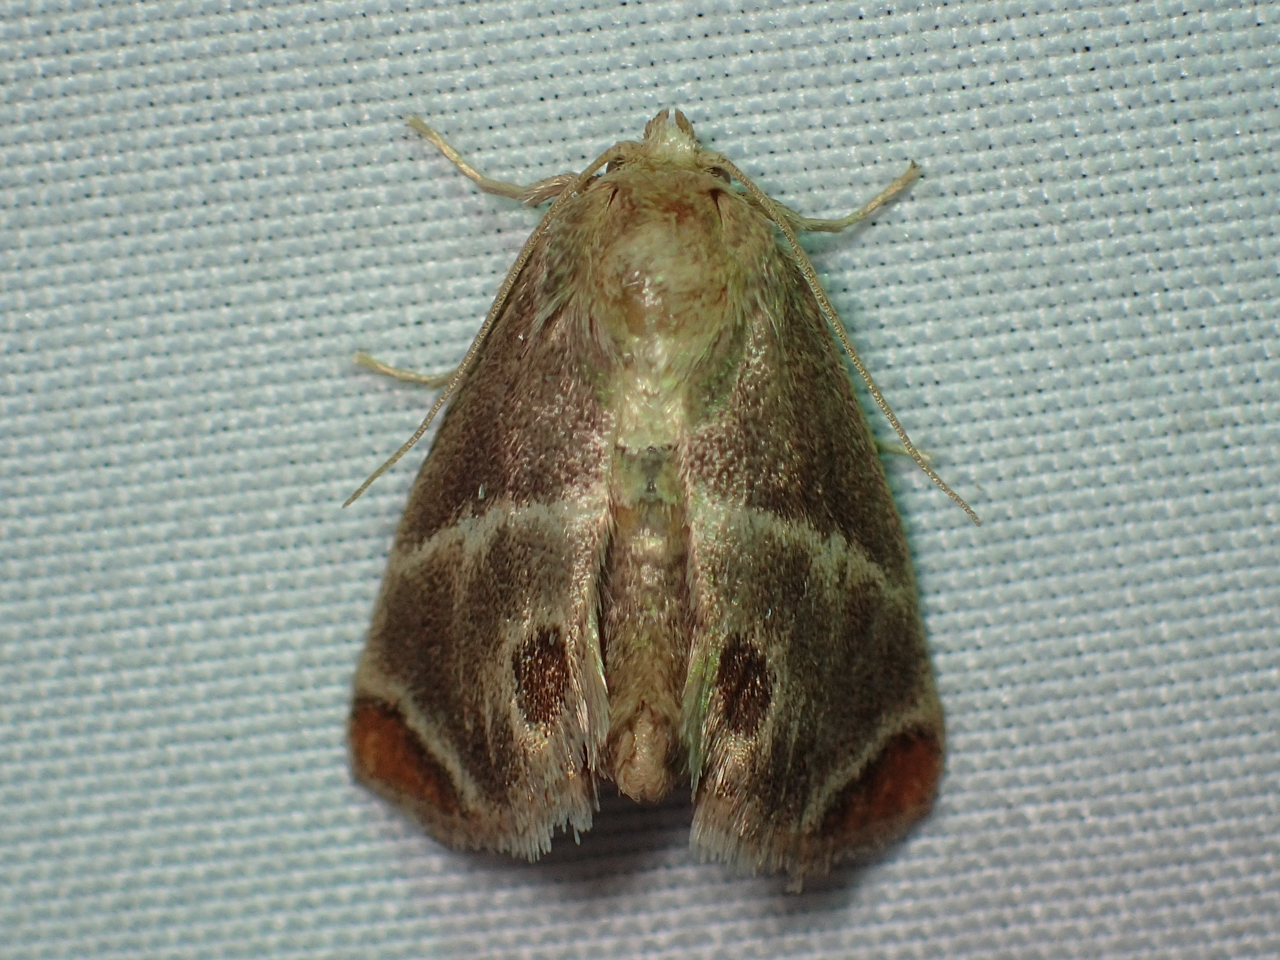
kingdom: Animalia
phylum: Arthropoda
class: Insecta
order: Lepidoptera
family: Limacodidae
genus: Apoda
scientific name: Apoda biguttata
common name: Shagreened slug moth
